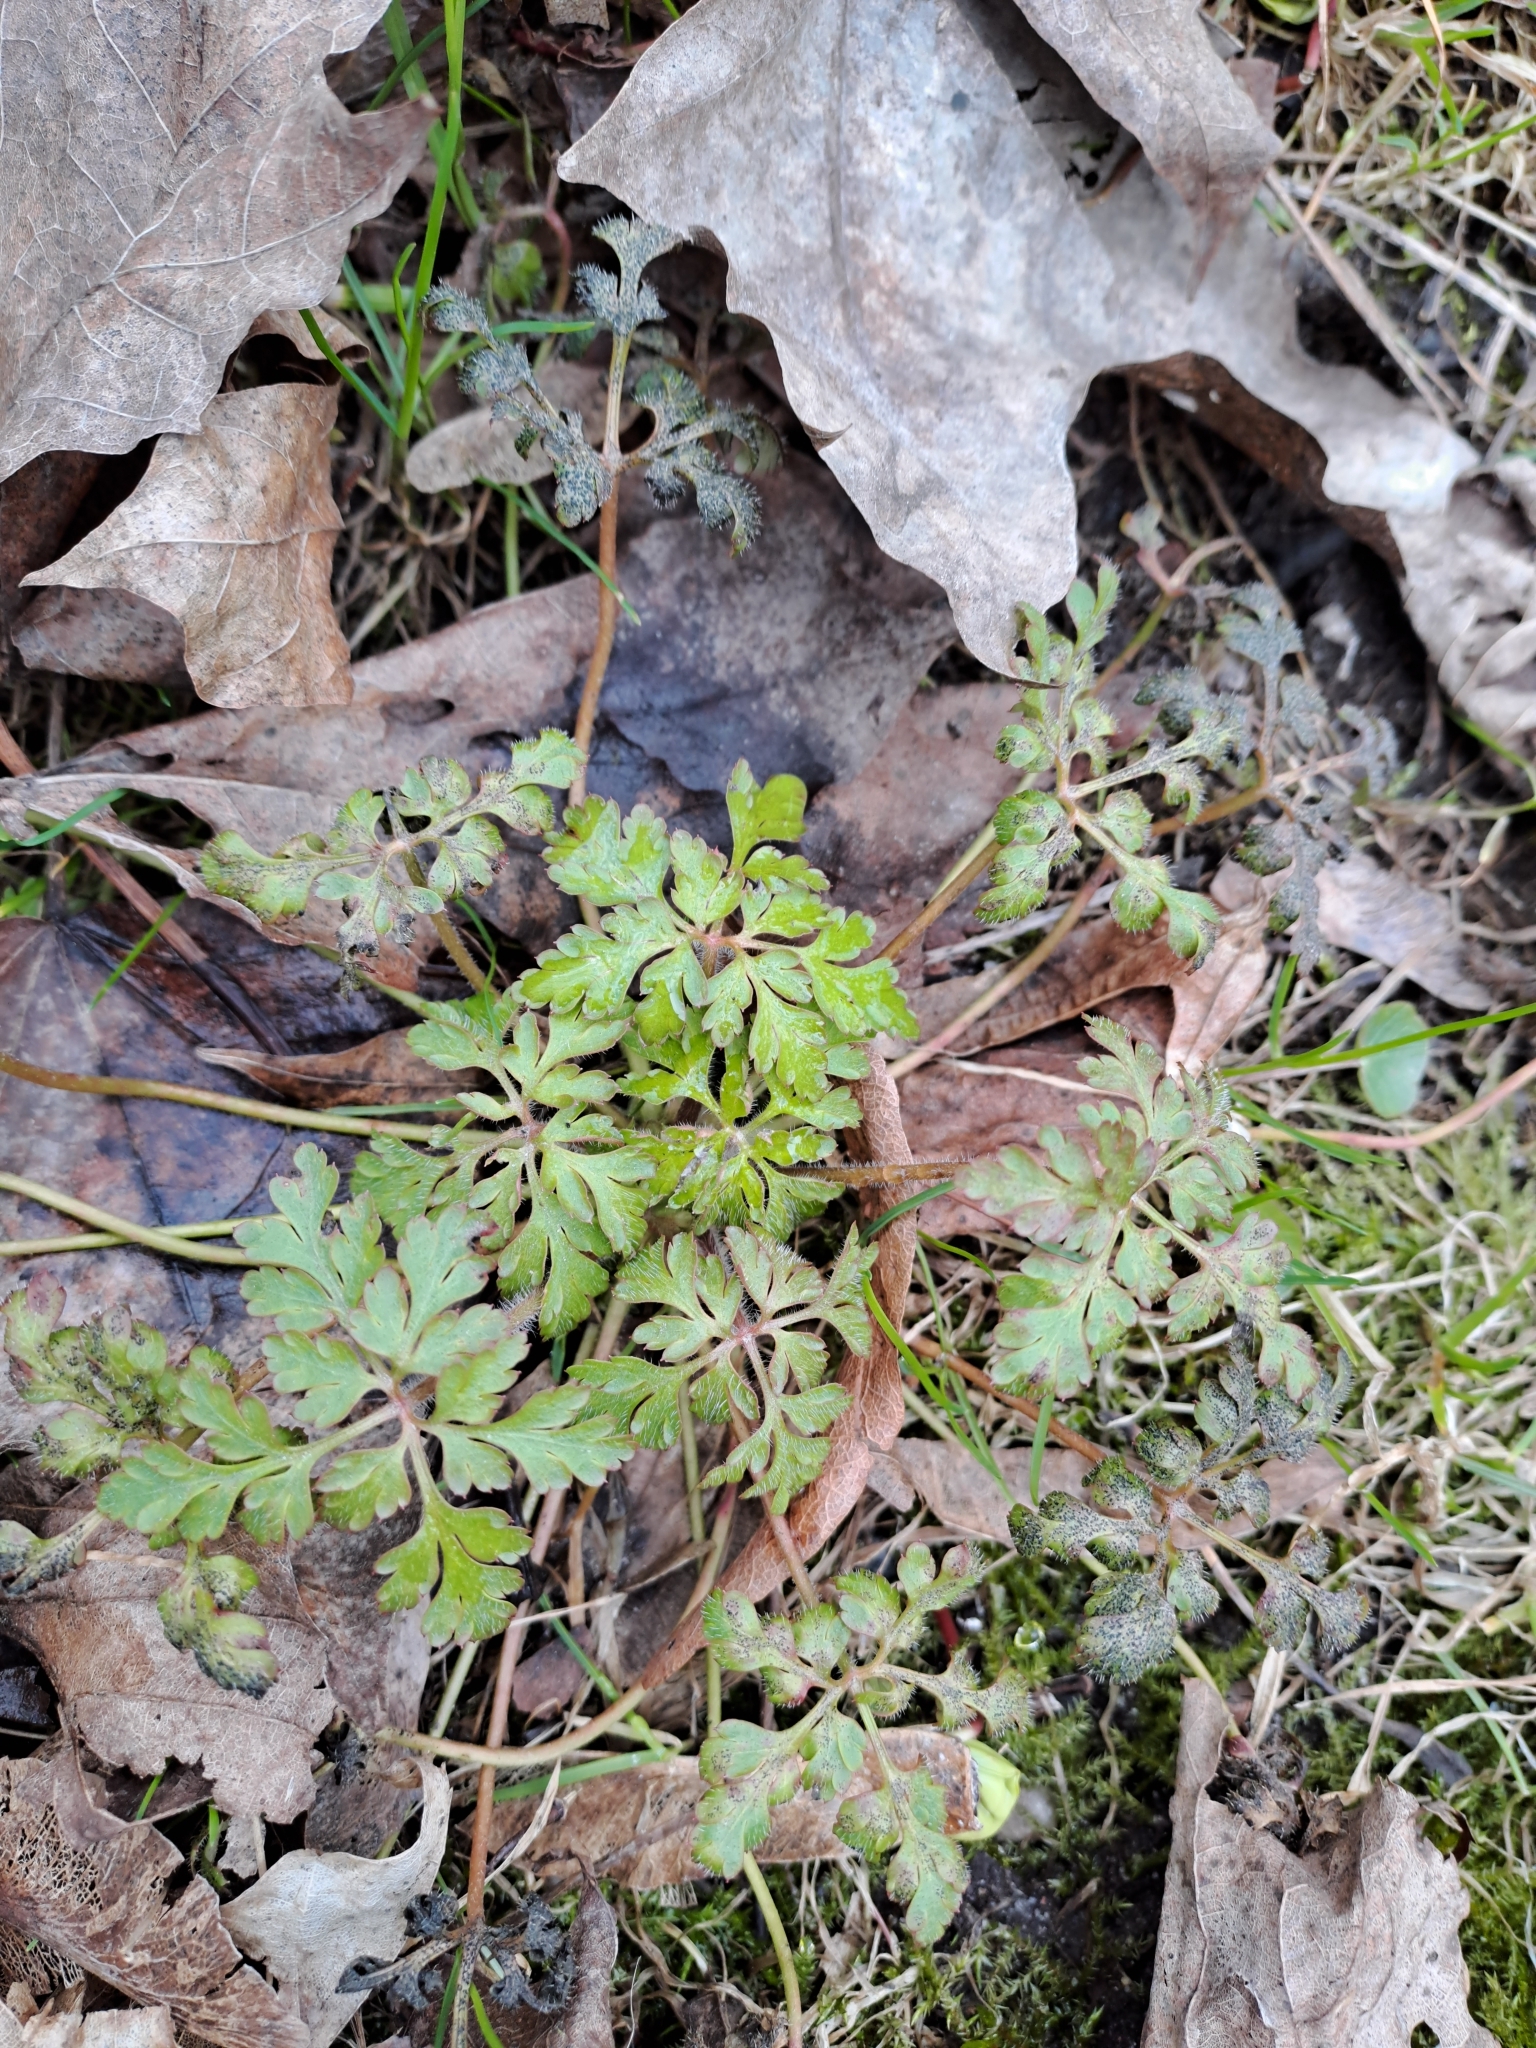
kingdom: Plantae
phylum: Tracheophyta
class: Magnoliopsida
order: Geraniales
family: Geraniaceae
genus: Geranium
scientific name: Geranium robertianum
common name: Herb-robert
